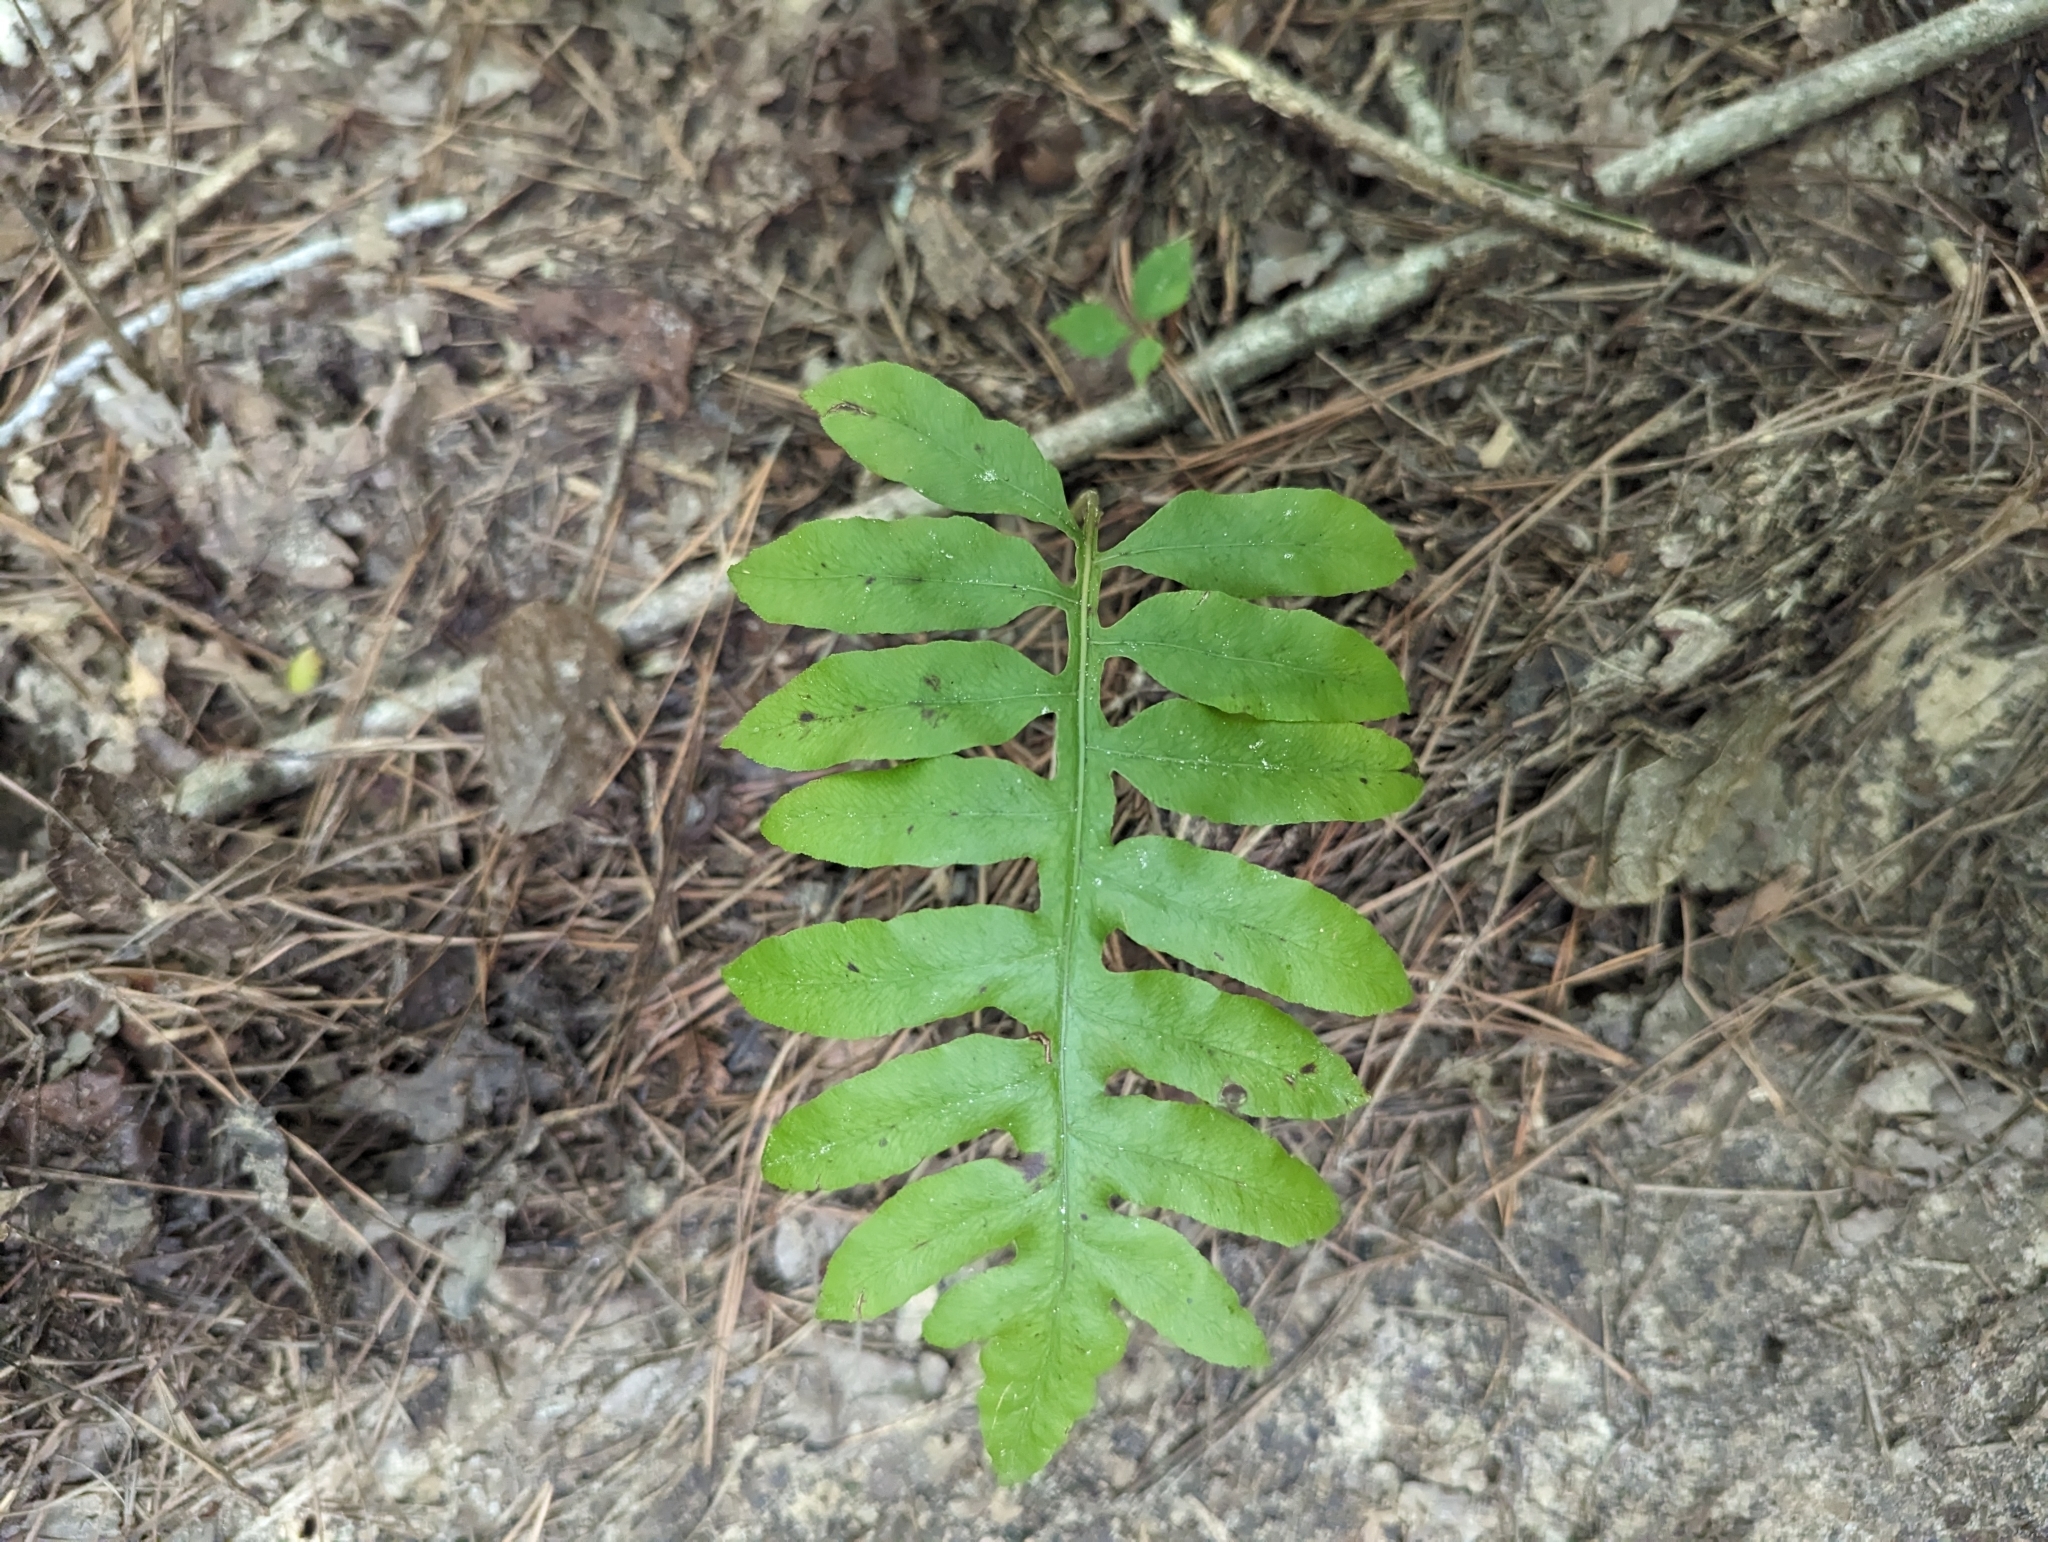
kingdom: Plantae
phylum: Tracheophyta
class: Polypodiopsida
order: Polypodiales
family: Blechnaceae
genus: Lorinseria
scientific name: Lorinseria areolata
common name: Dwarf chain fern
